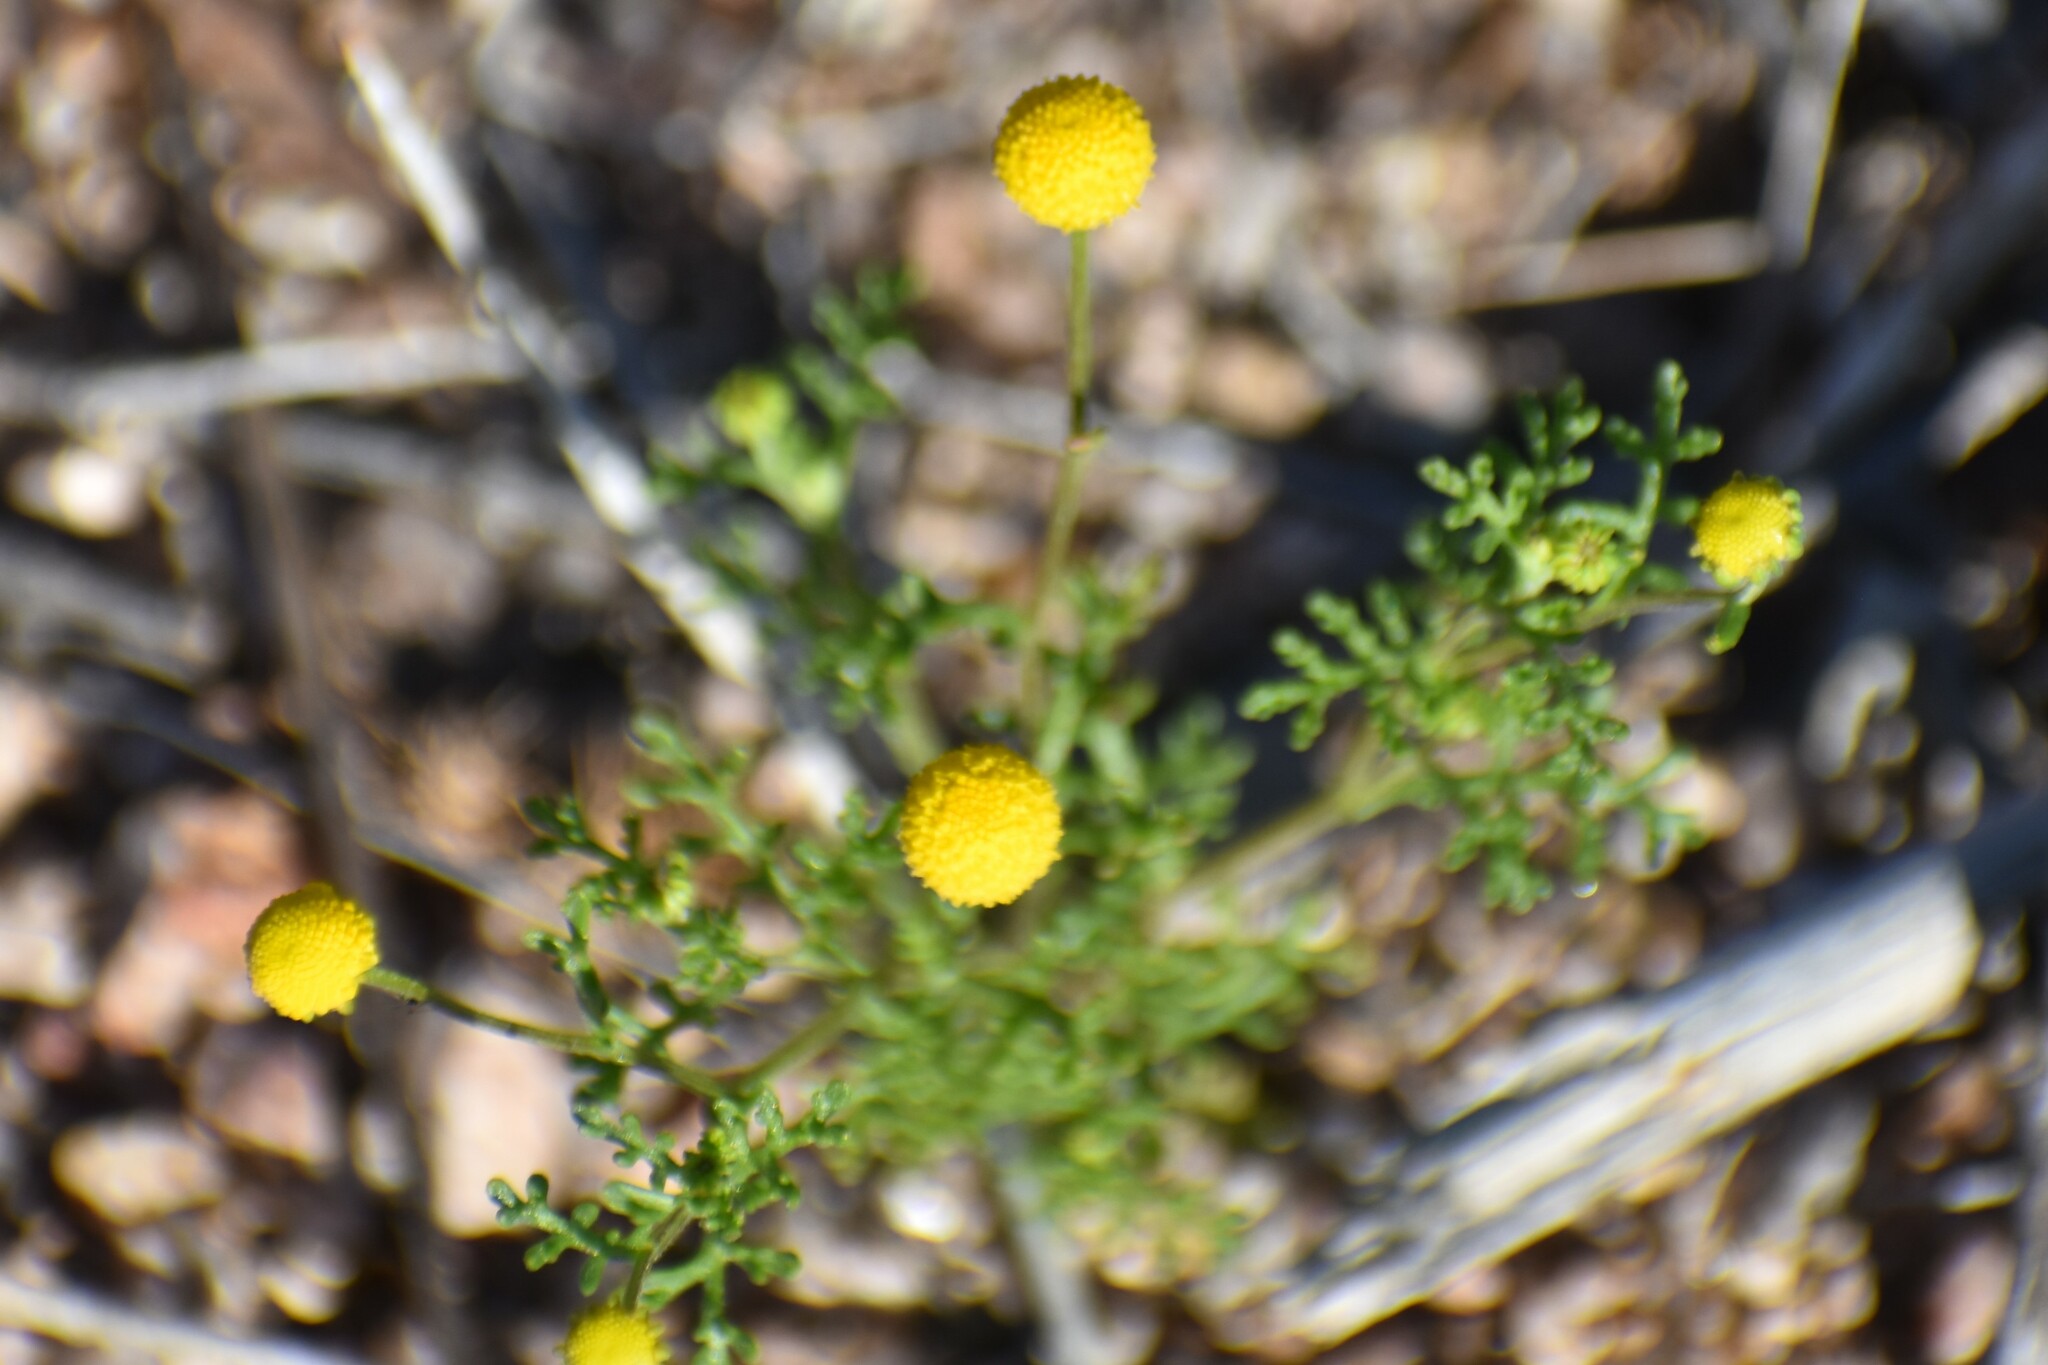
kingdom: Plantae
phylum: Tracheophyta
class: Magnoliopsida
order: Asterales
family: Asteraceae
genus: Oncosiphon
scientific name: Oncosiphon pilulifer
